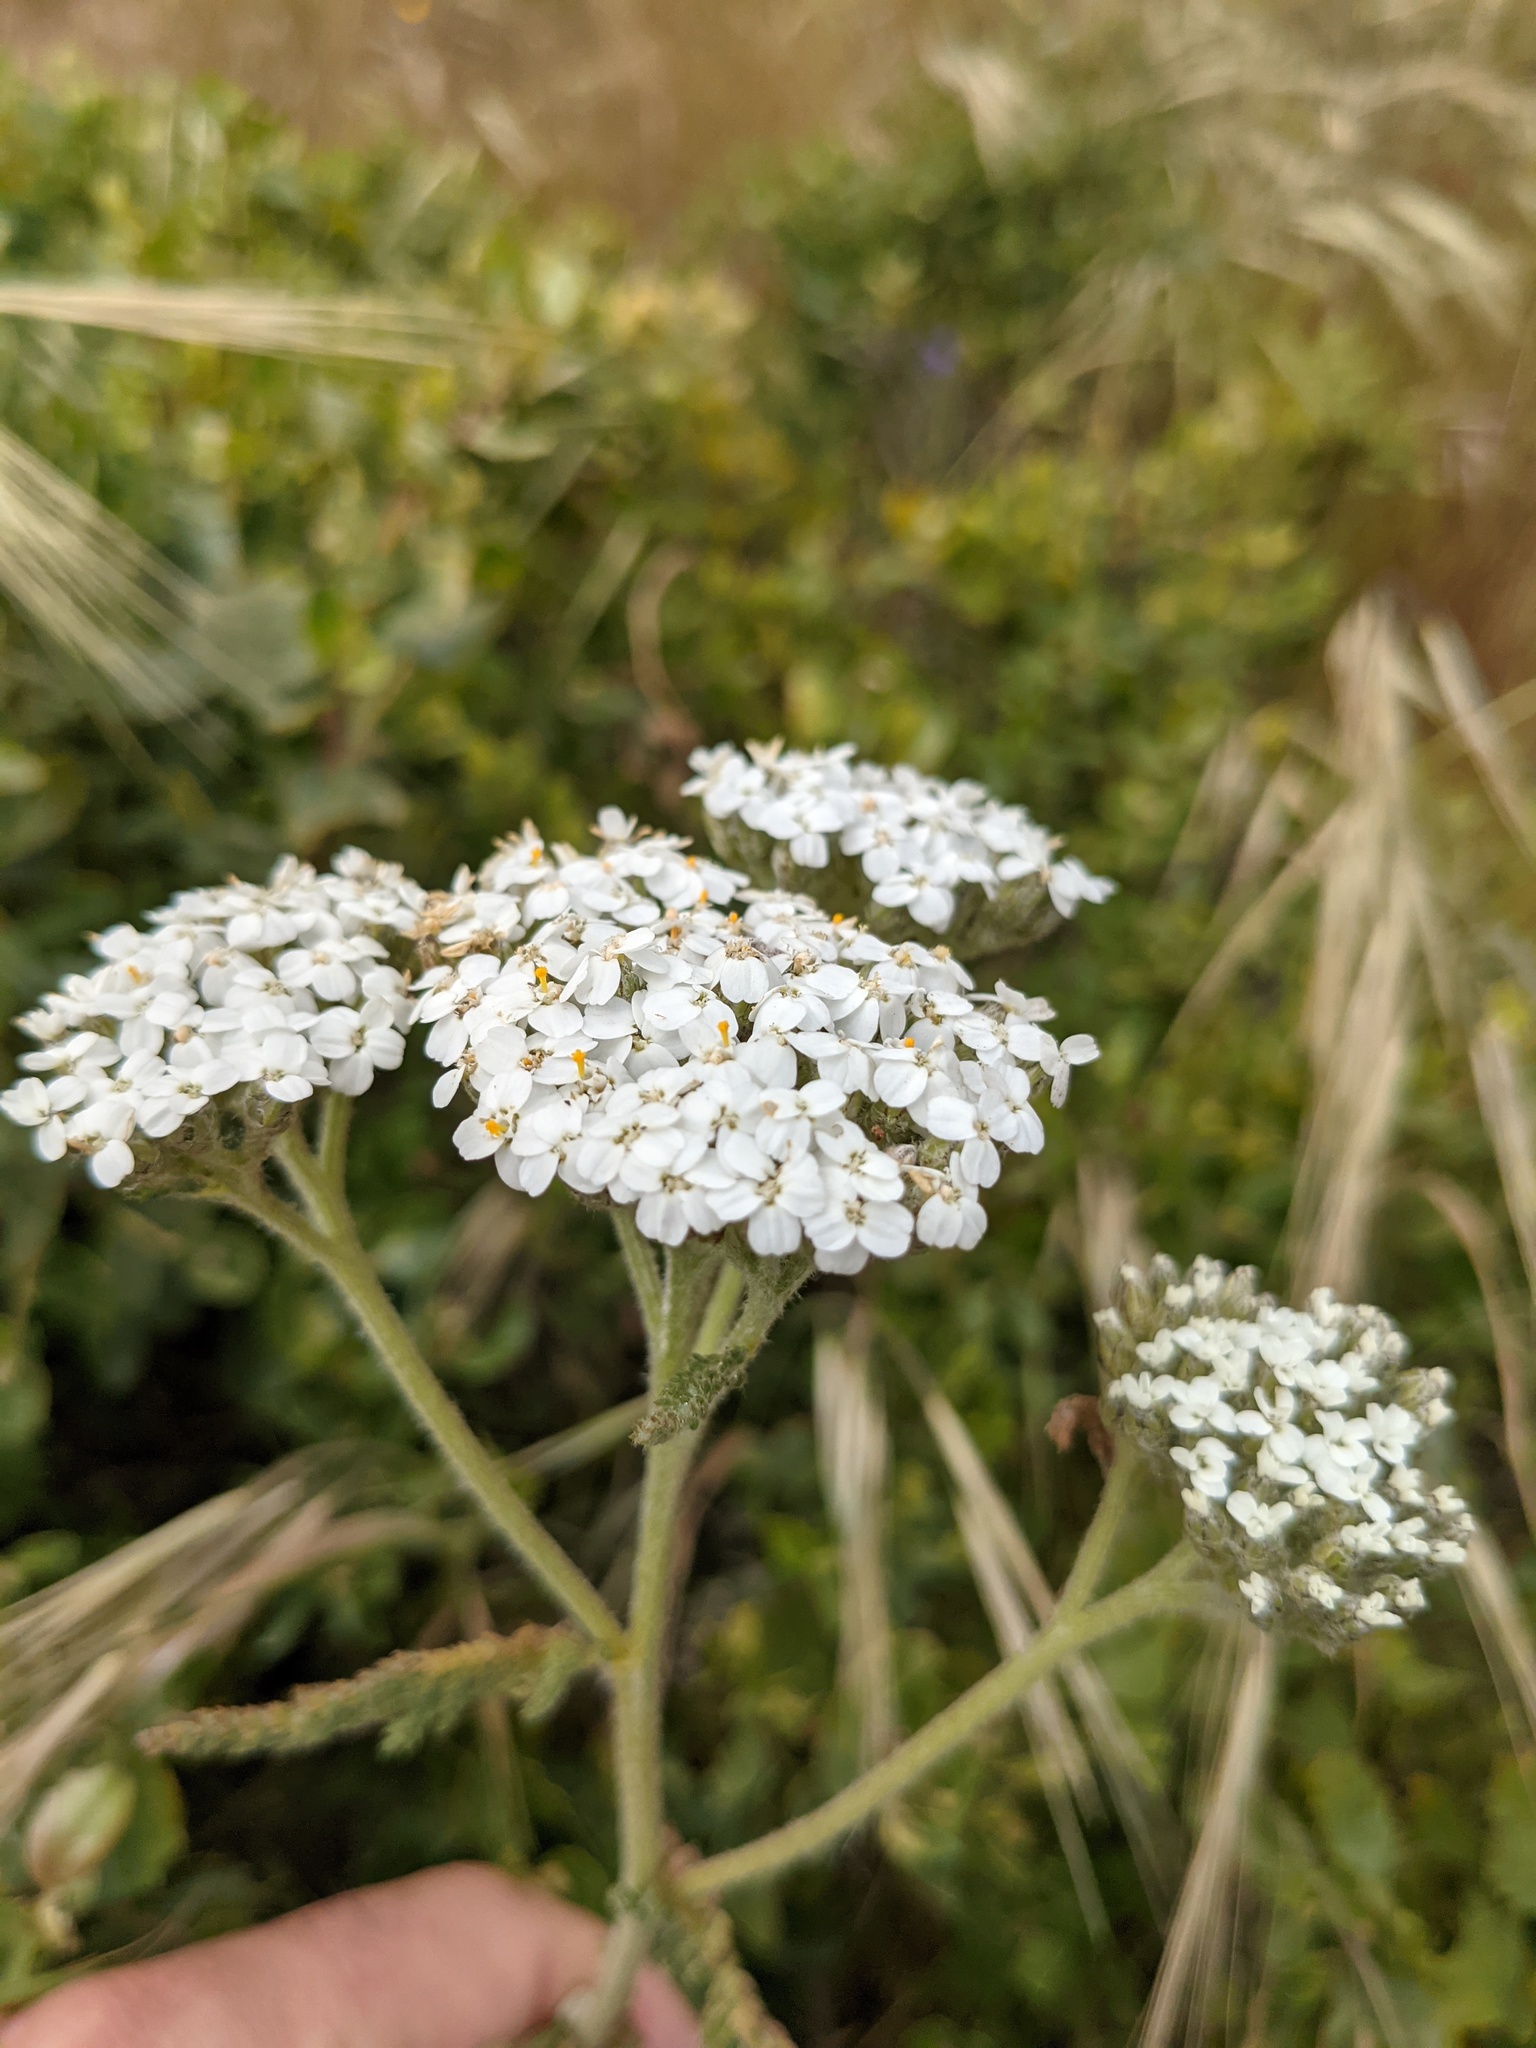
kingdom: Plantae
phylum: Tracheophyta
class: Magnoliopsida
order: Asterales
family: Asteraceae
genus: Achillea
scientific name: Achillea millefolium
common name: Yarrow
